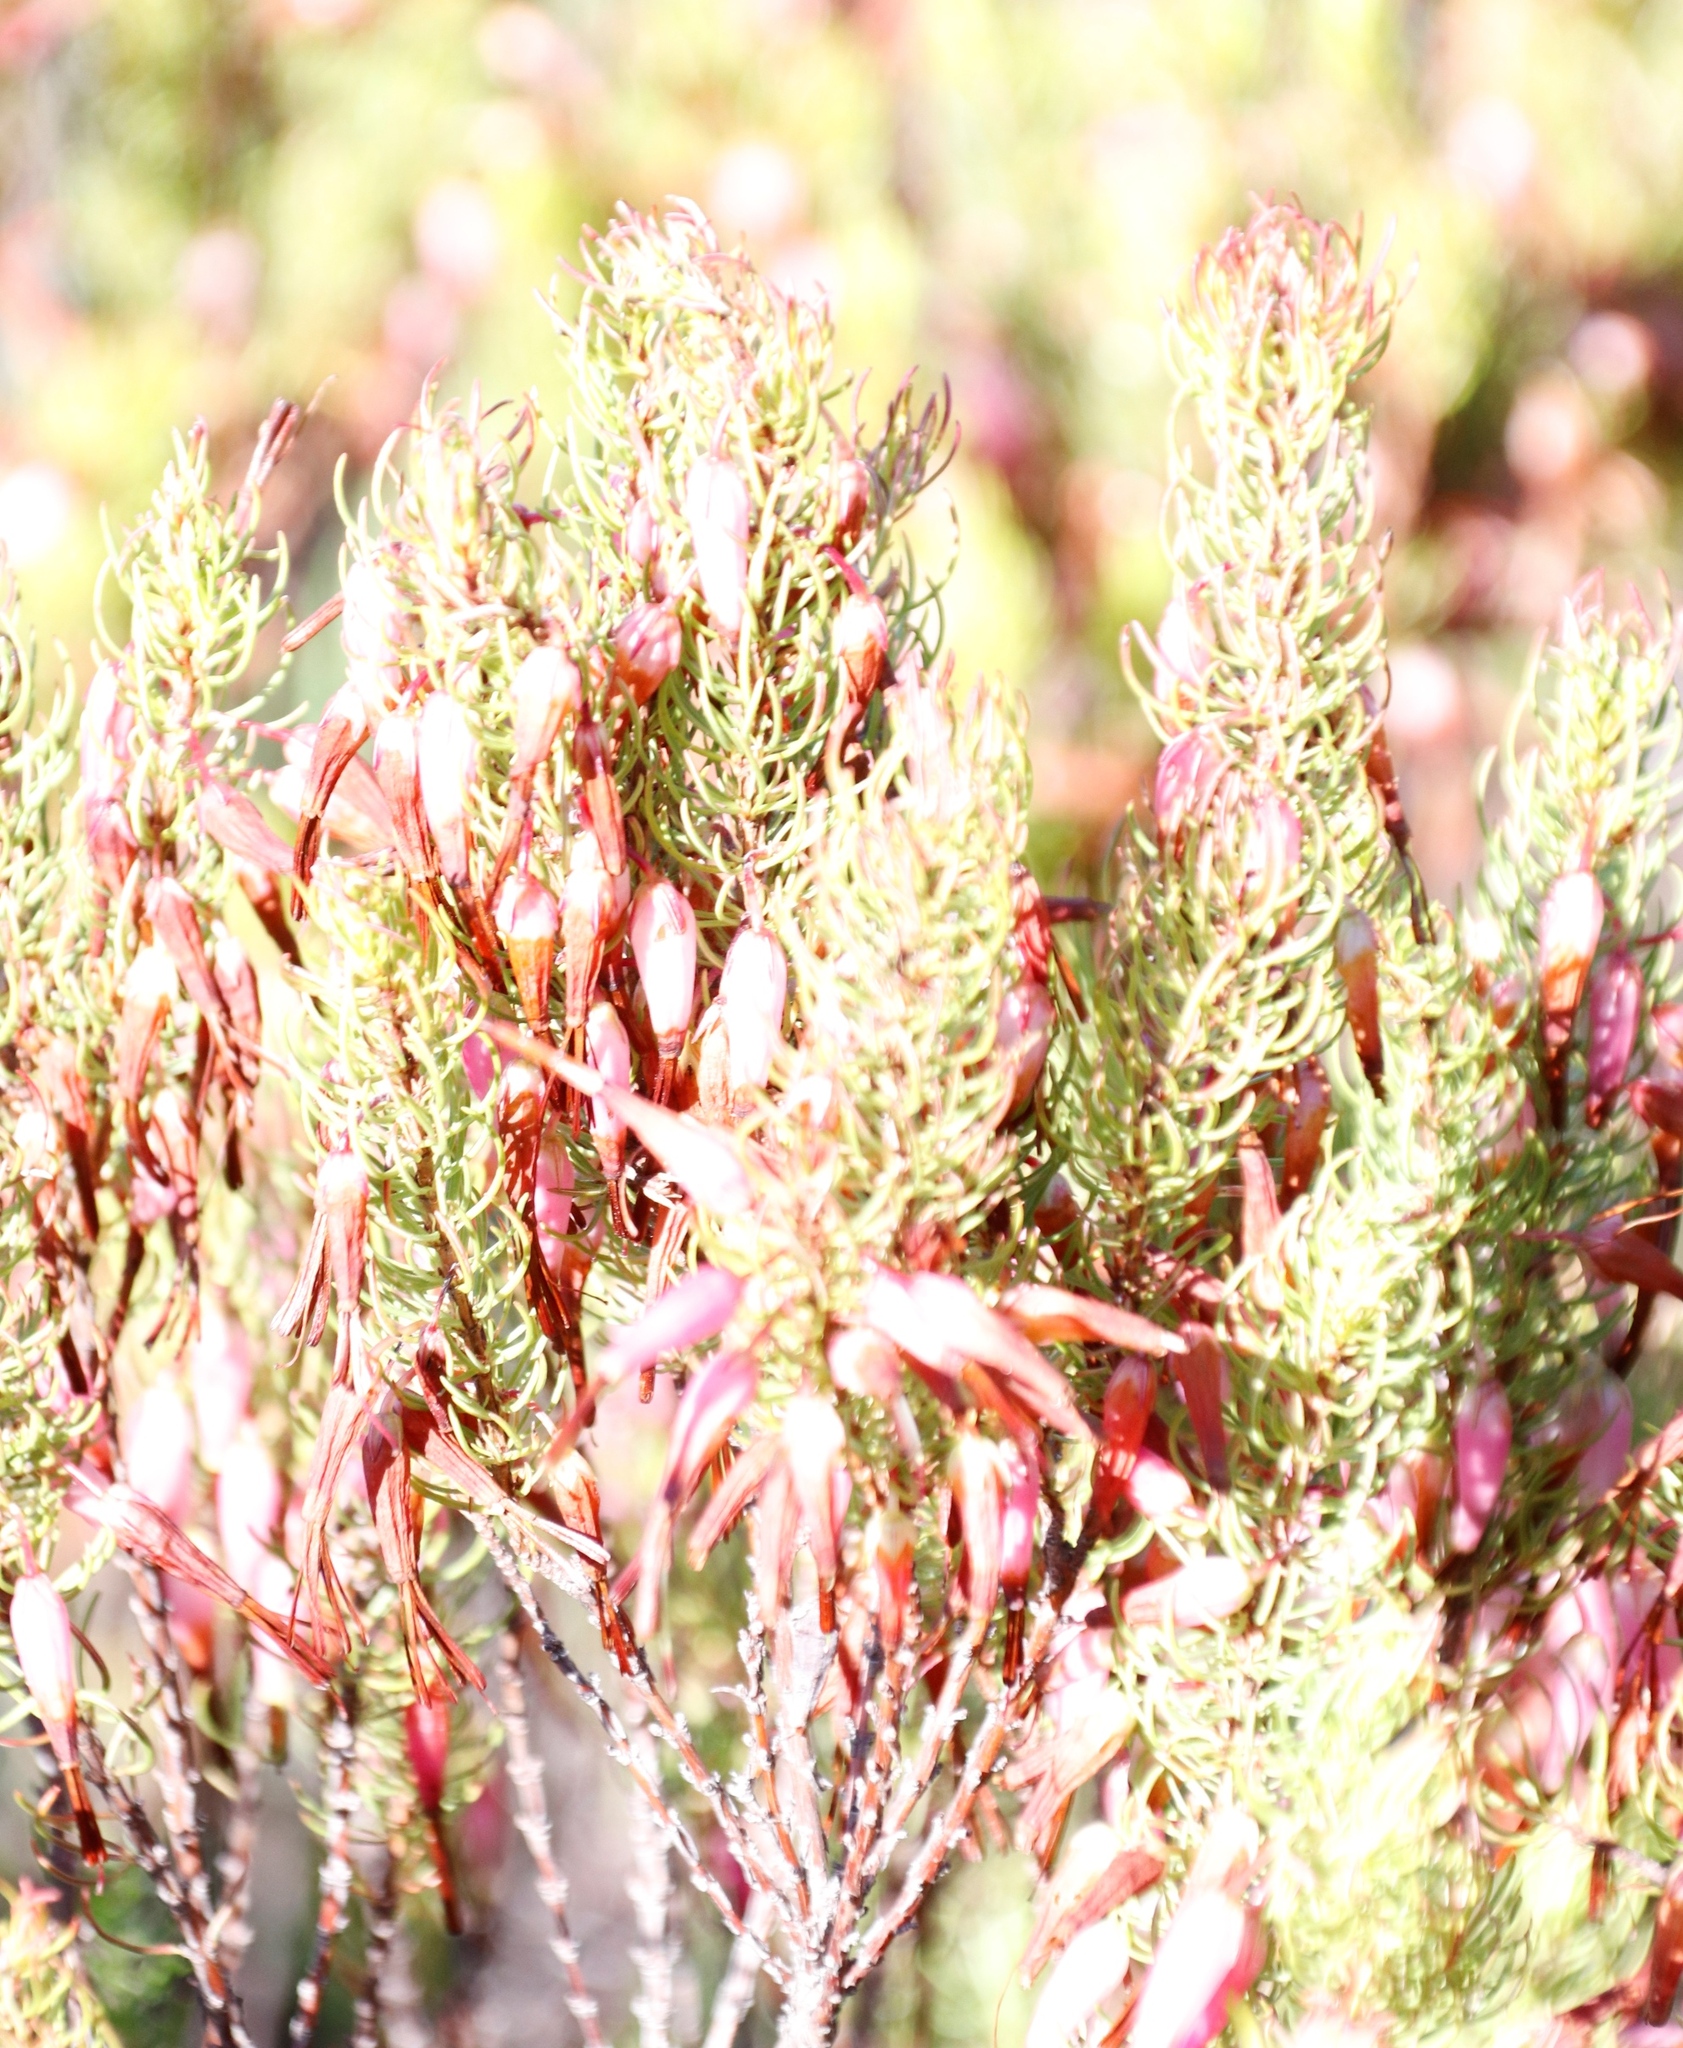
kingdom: Plantae
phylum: Tracheophyta
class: Magnoliopsida
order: Ericales
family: Ericaceae
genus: Erica
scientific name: Erica plukenetii
